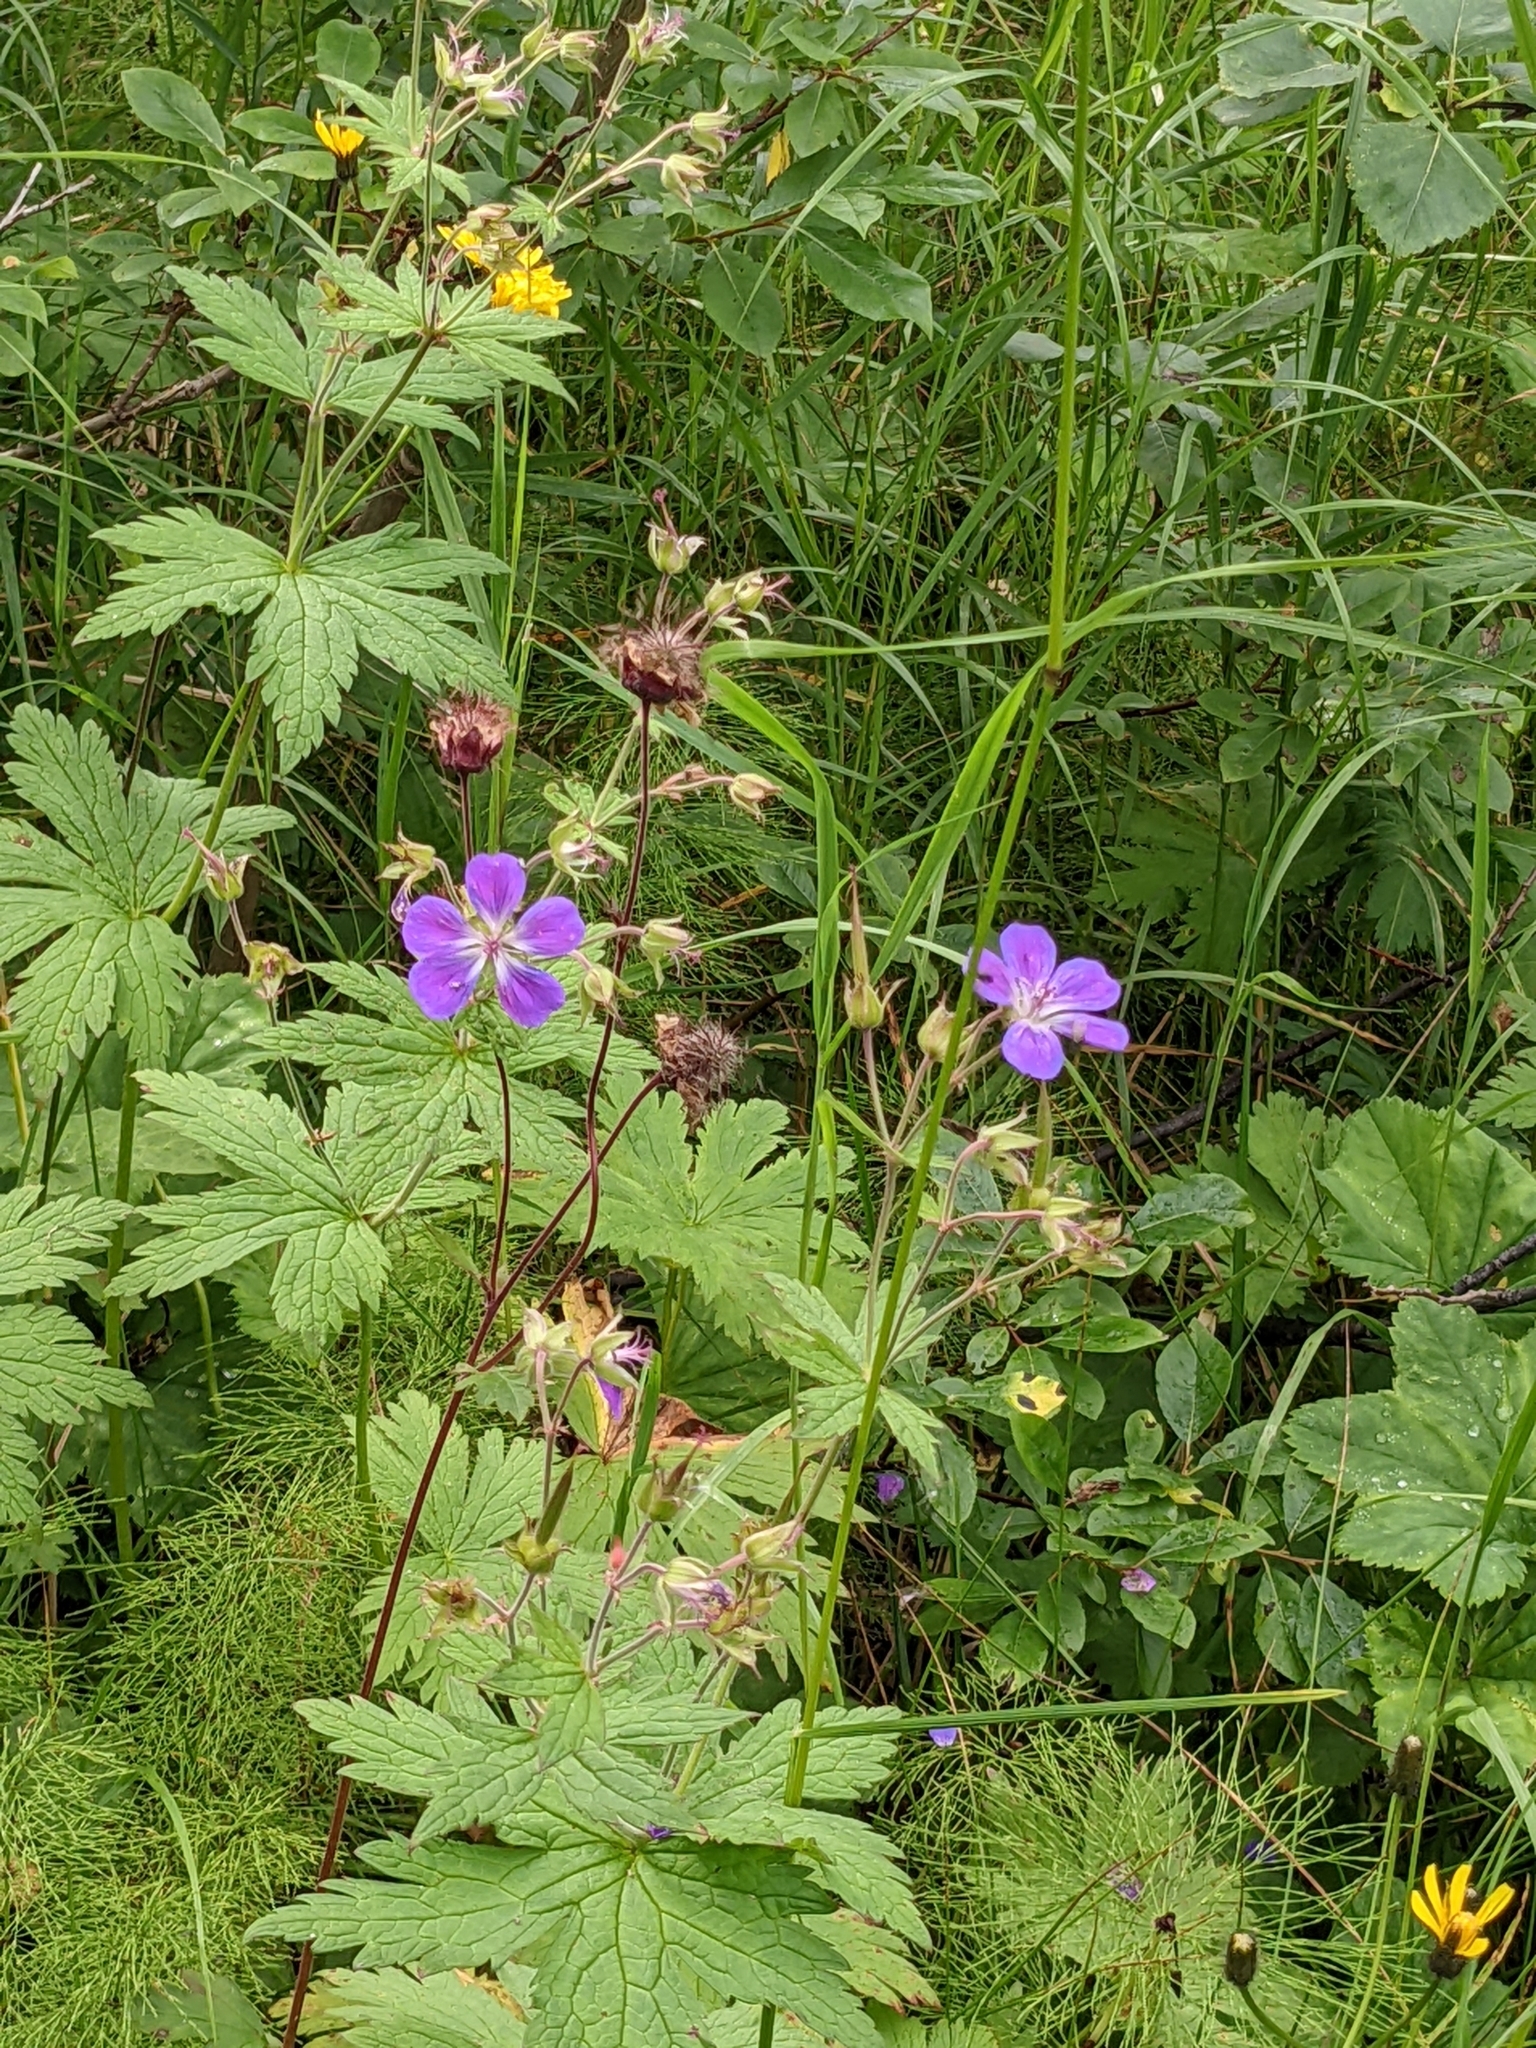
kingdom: Plantae
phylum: Tracheophyta
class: Magnoliopsida
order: Geraniales
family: Geraniaceae
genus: Geranium
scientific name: Geranium sylvaticum
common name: Wood crane's-bill
